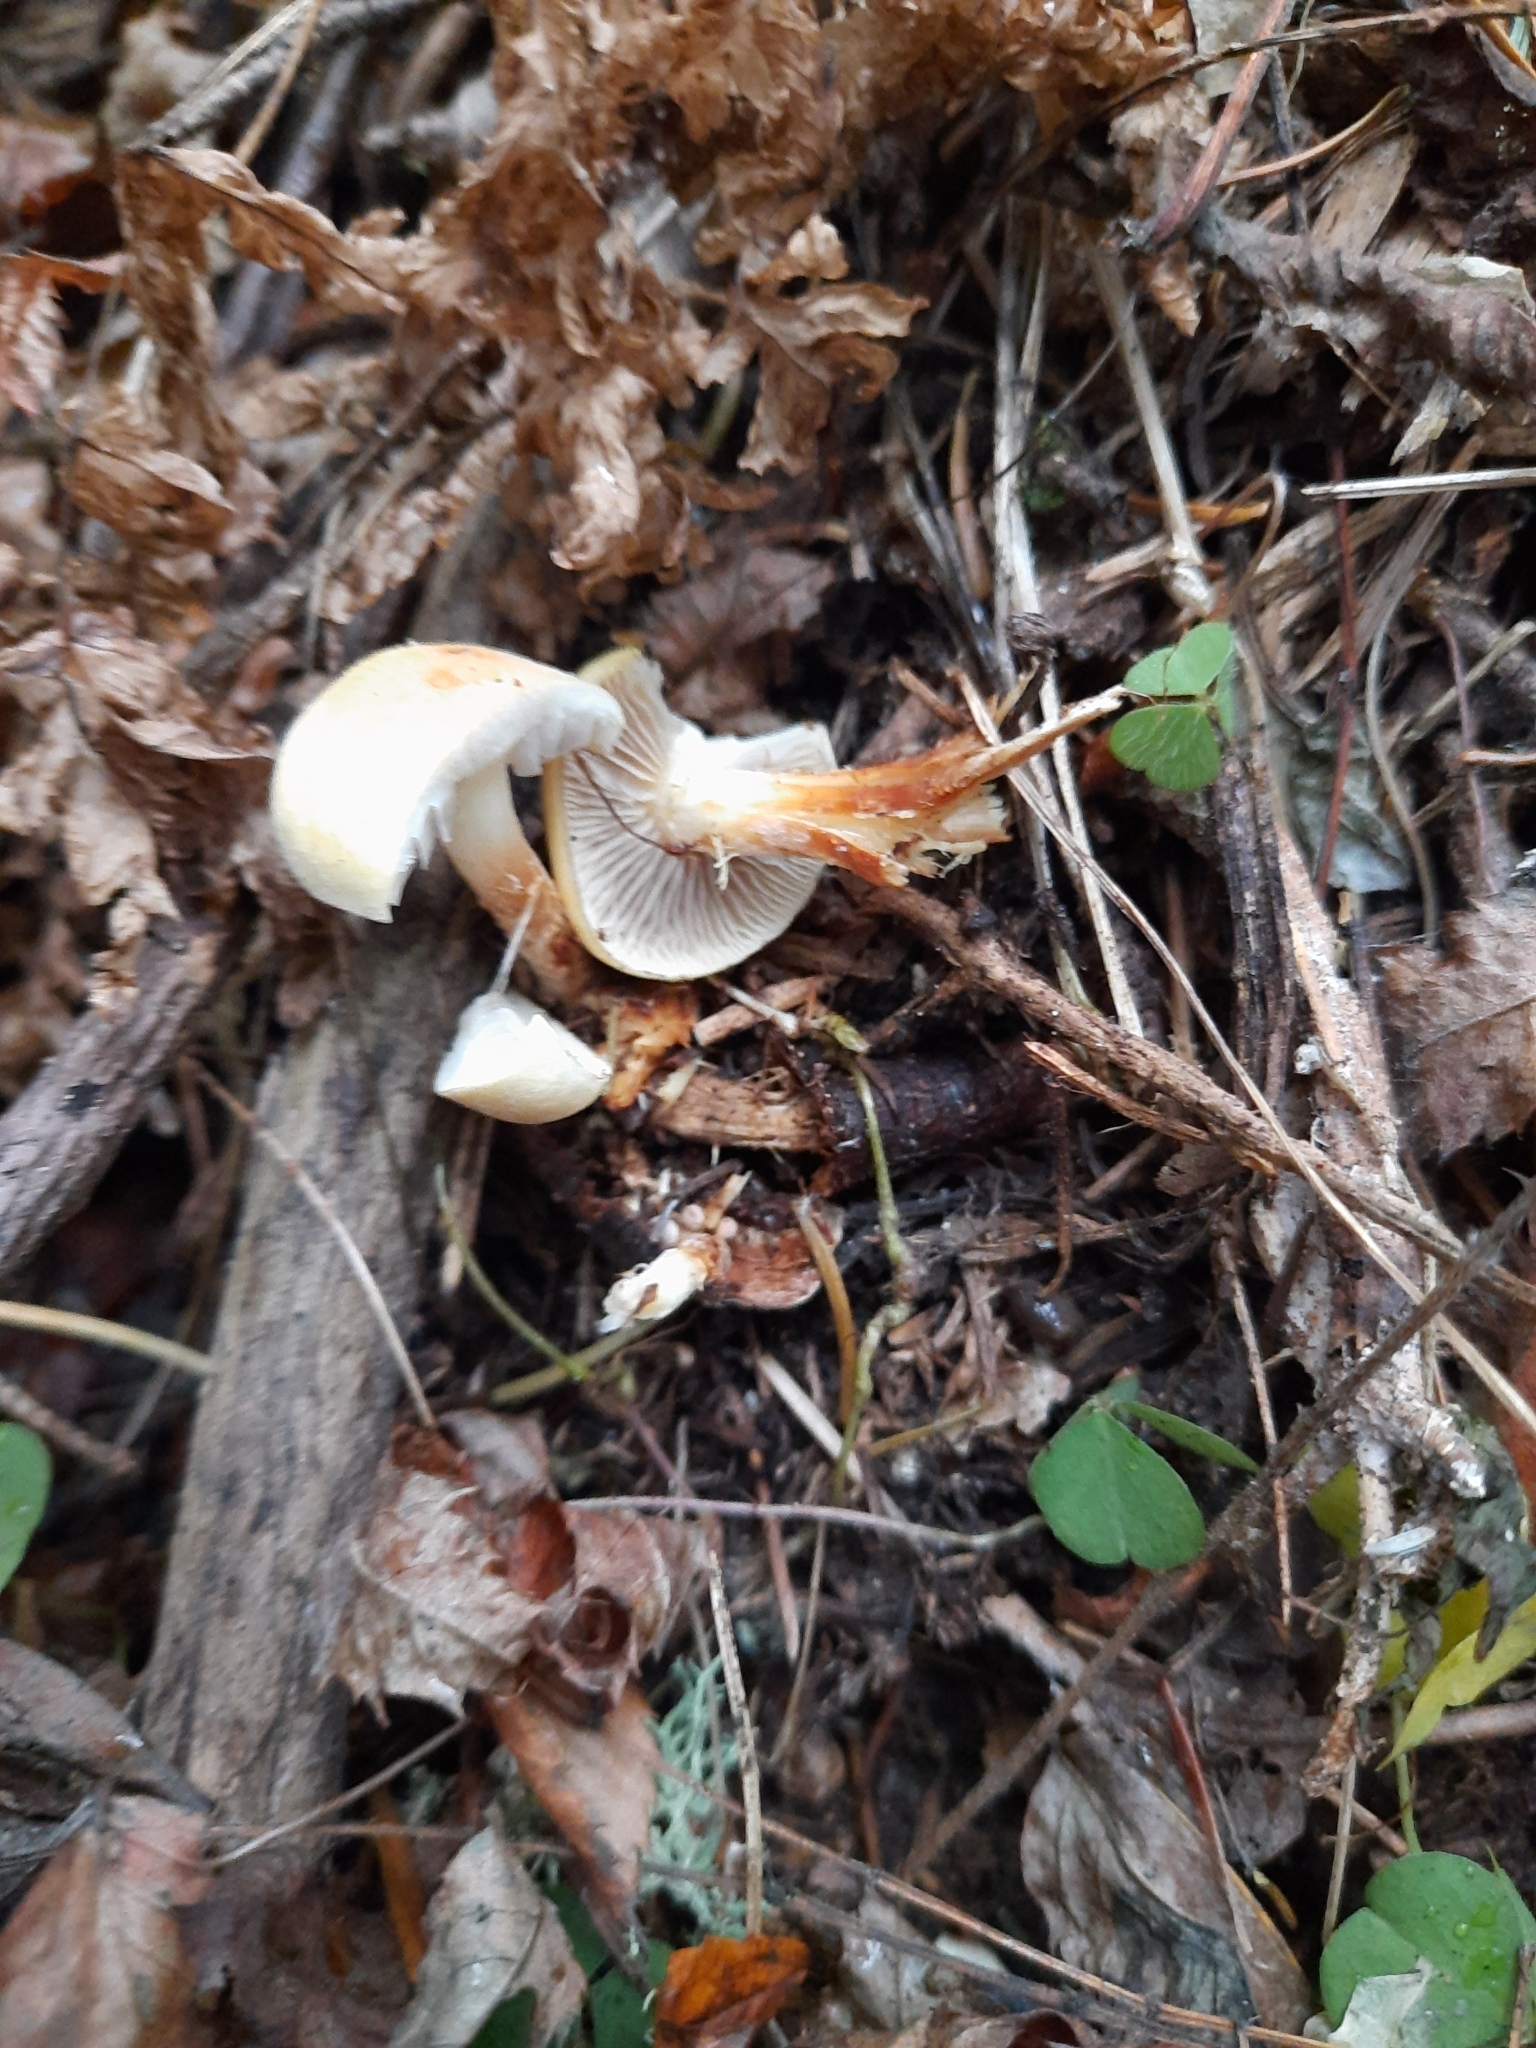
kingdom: Fungi
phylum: Basidiomycota
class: Agaricomycetes
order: Agaricales
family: Strophariaceae
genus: Hypholoma
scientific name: Hypholoma capnoides
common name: Conifer tuft
